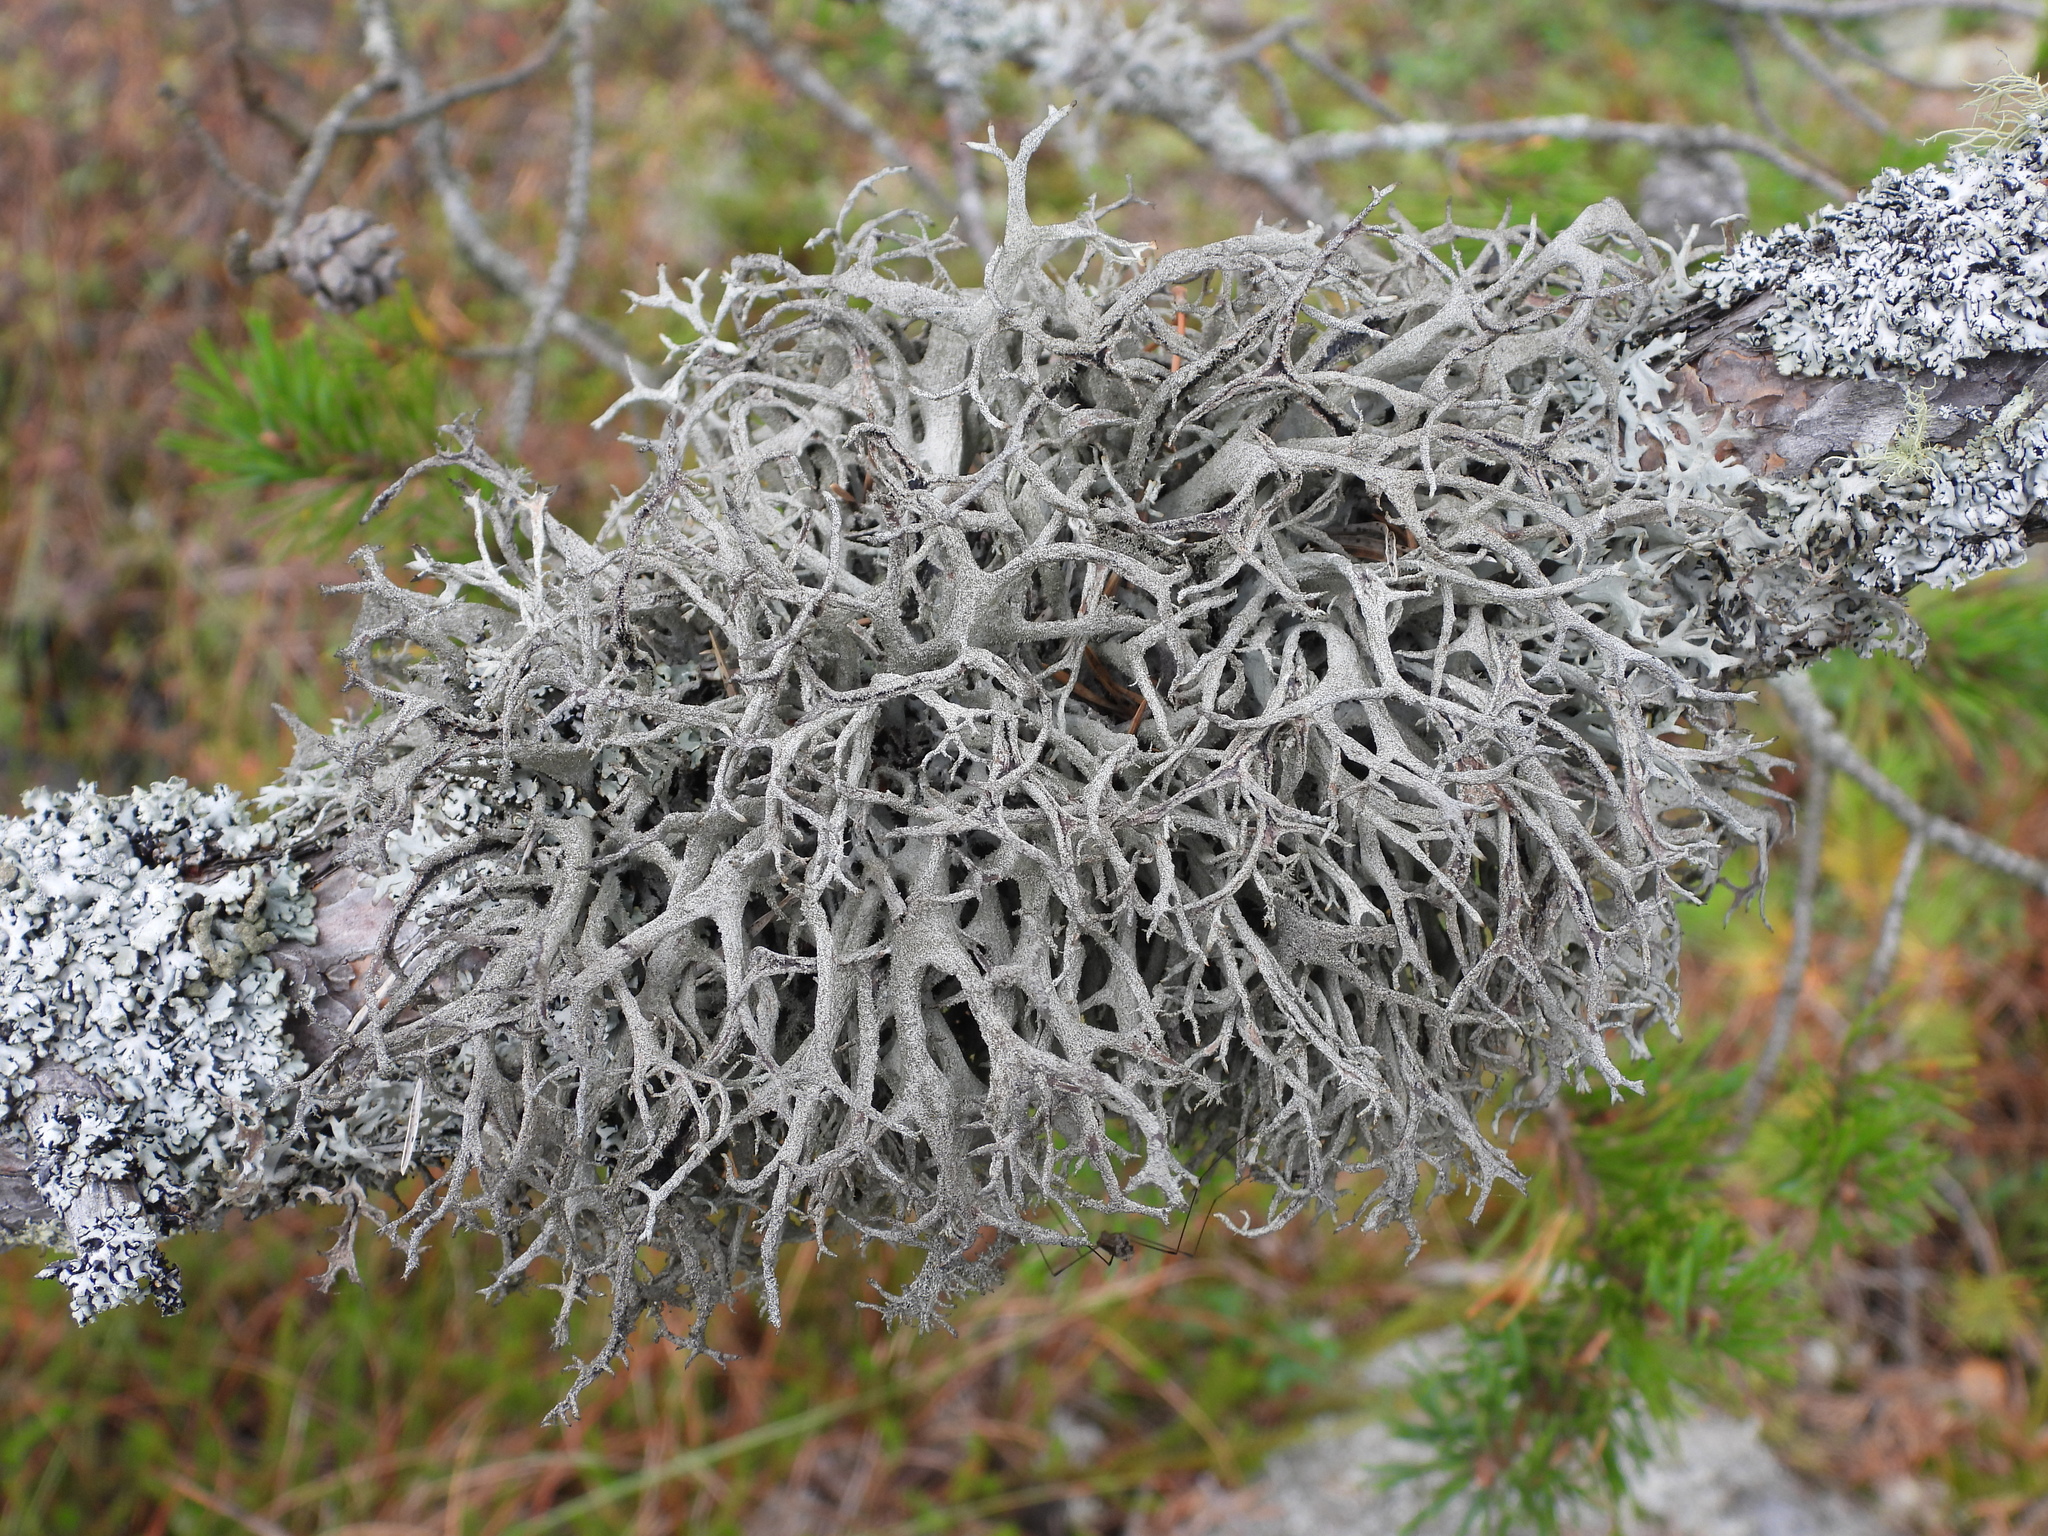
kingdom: Fungi
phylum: Ascomycota
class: Lecanoromycetes
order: Lecanorales
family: Parmeliaceae
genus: Pseudevernia
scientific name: Pseudevernia furfuracea
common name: Tree moss
